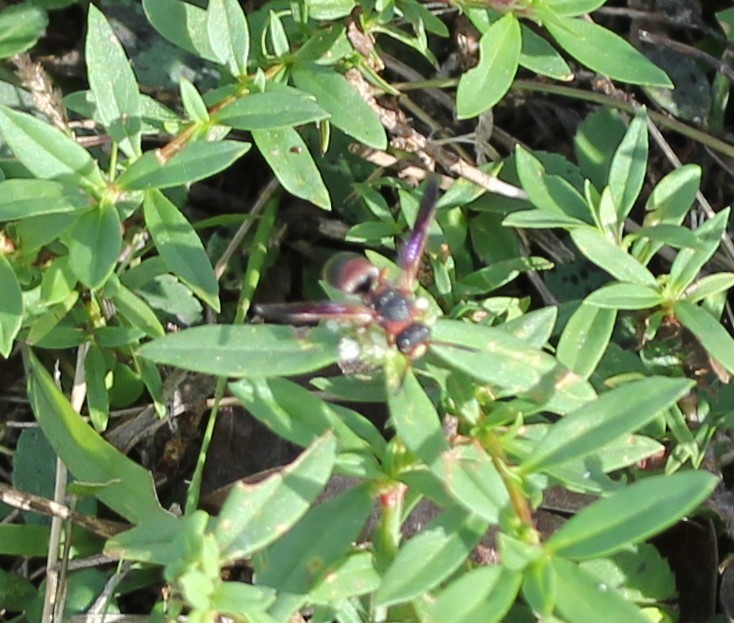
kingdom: Animalia
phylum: Arthropoda
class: Insecta
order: Hymenoptera
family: Eumenidae
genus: Pachodynerus
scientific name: Pachodynerus erynnis
